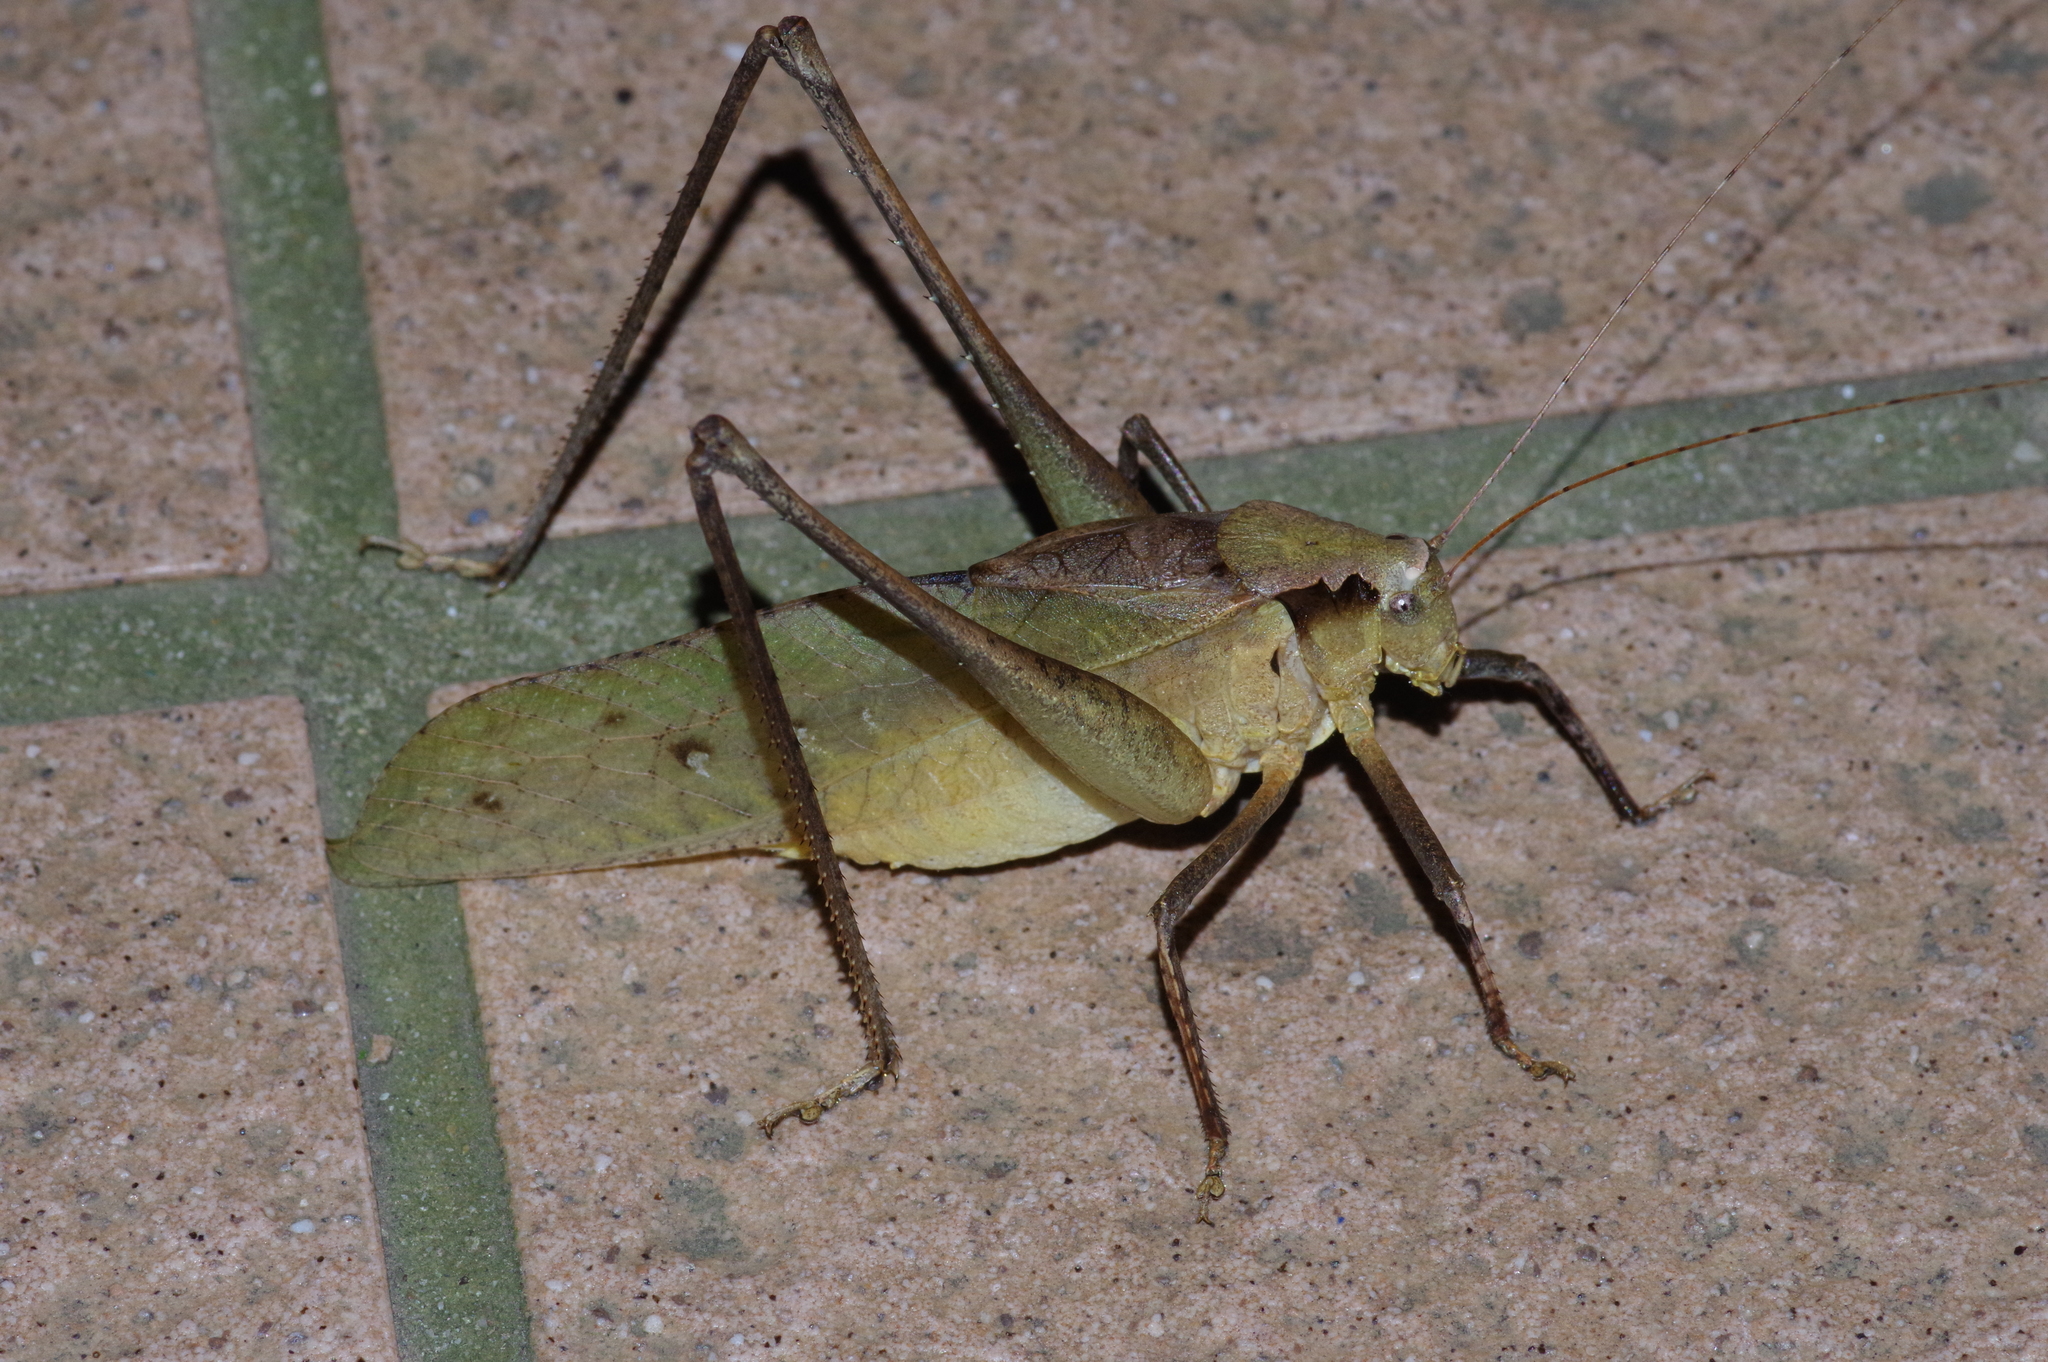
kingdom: Animalia
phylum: Arthropoda
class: Insecta
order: Orthoptera
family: Tettigoniidae
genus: Mecopoda
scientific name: Mecopoda elongata
